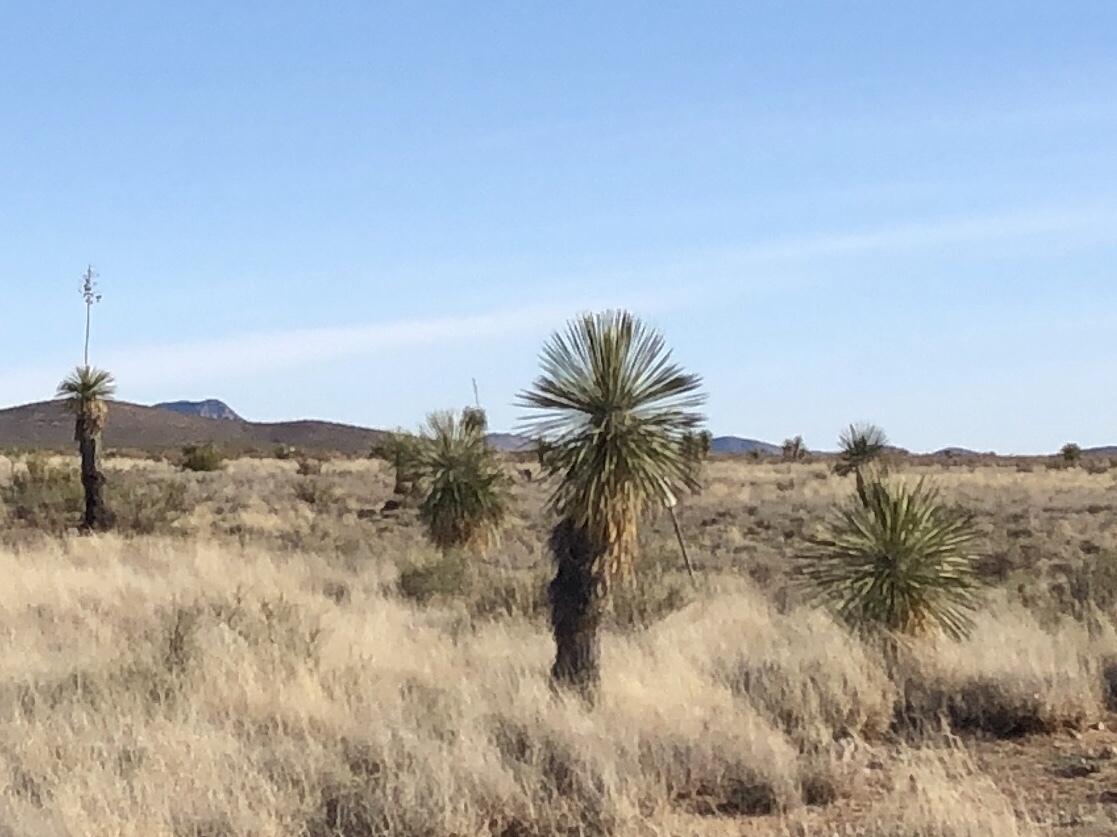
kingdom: Plantae
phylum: Tracheophyta
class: Liliopsida
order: Asparagales
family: Asparagaceae
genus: Yucca
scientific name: Yucca elata
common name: Palmella
